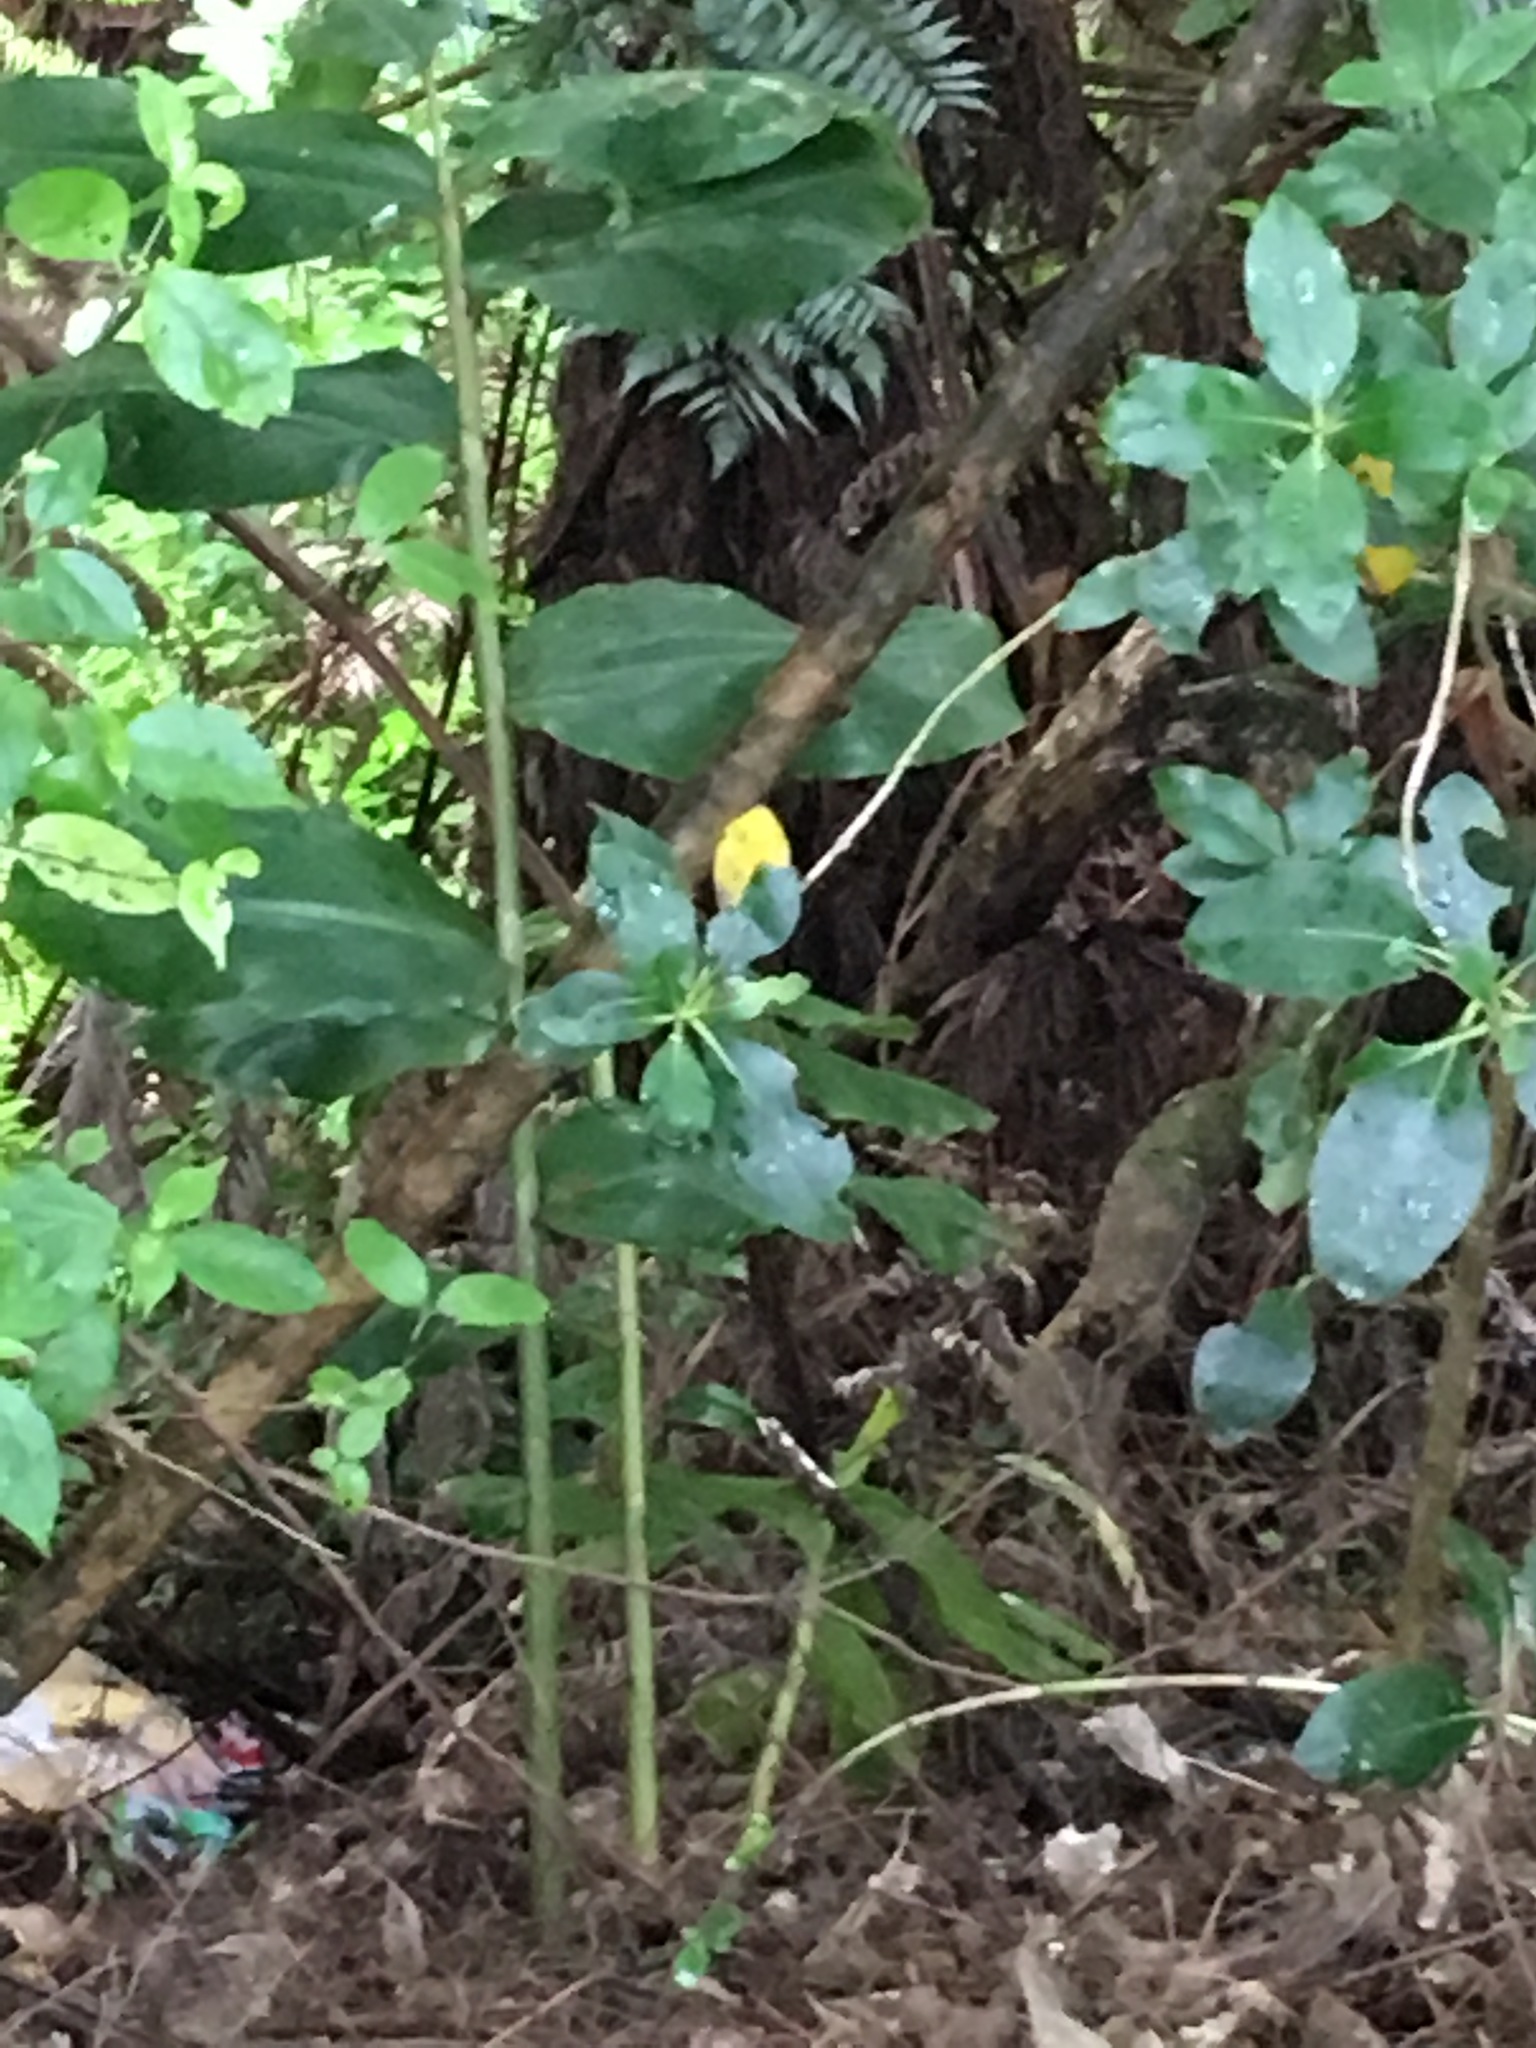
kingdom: Plantae
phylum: Tracheophyta
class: Liliopsida
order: Zingiberales
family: Zingiberaceae
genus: Hedychium
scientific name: Hedychium gardnerianum
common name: Himalayan ginger
